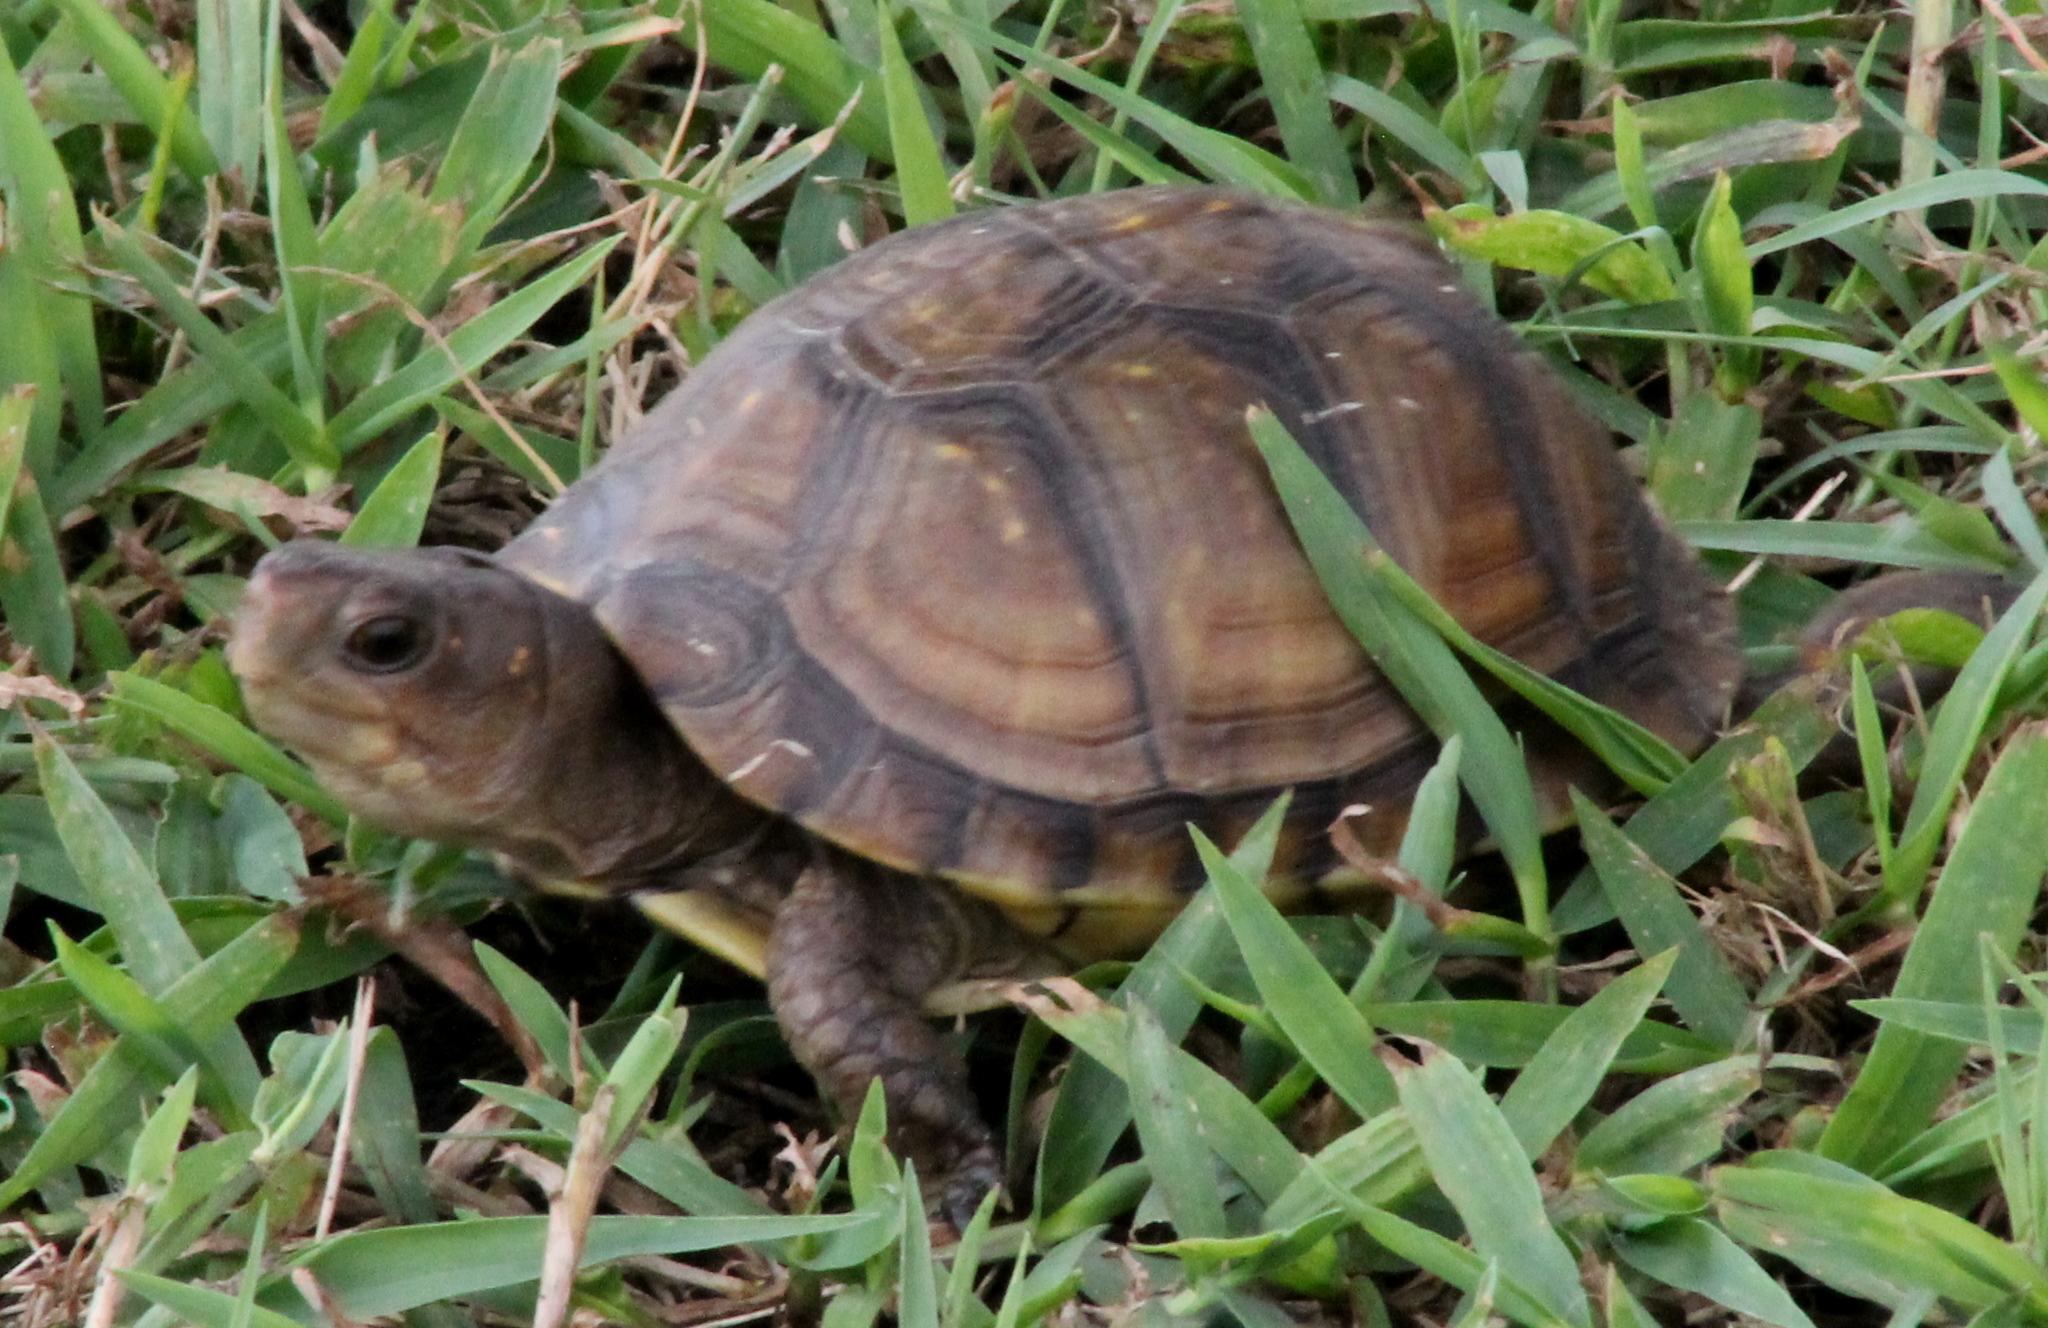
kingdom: Animalia
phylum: Chordata
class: Testudines
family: Emydidae
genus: Terrapene
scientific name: Terrapene carolina
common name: Common box turtle
